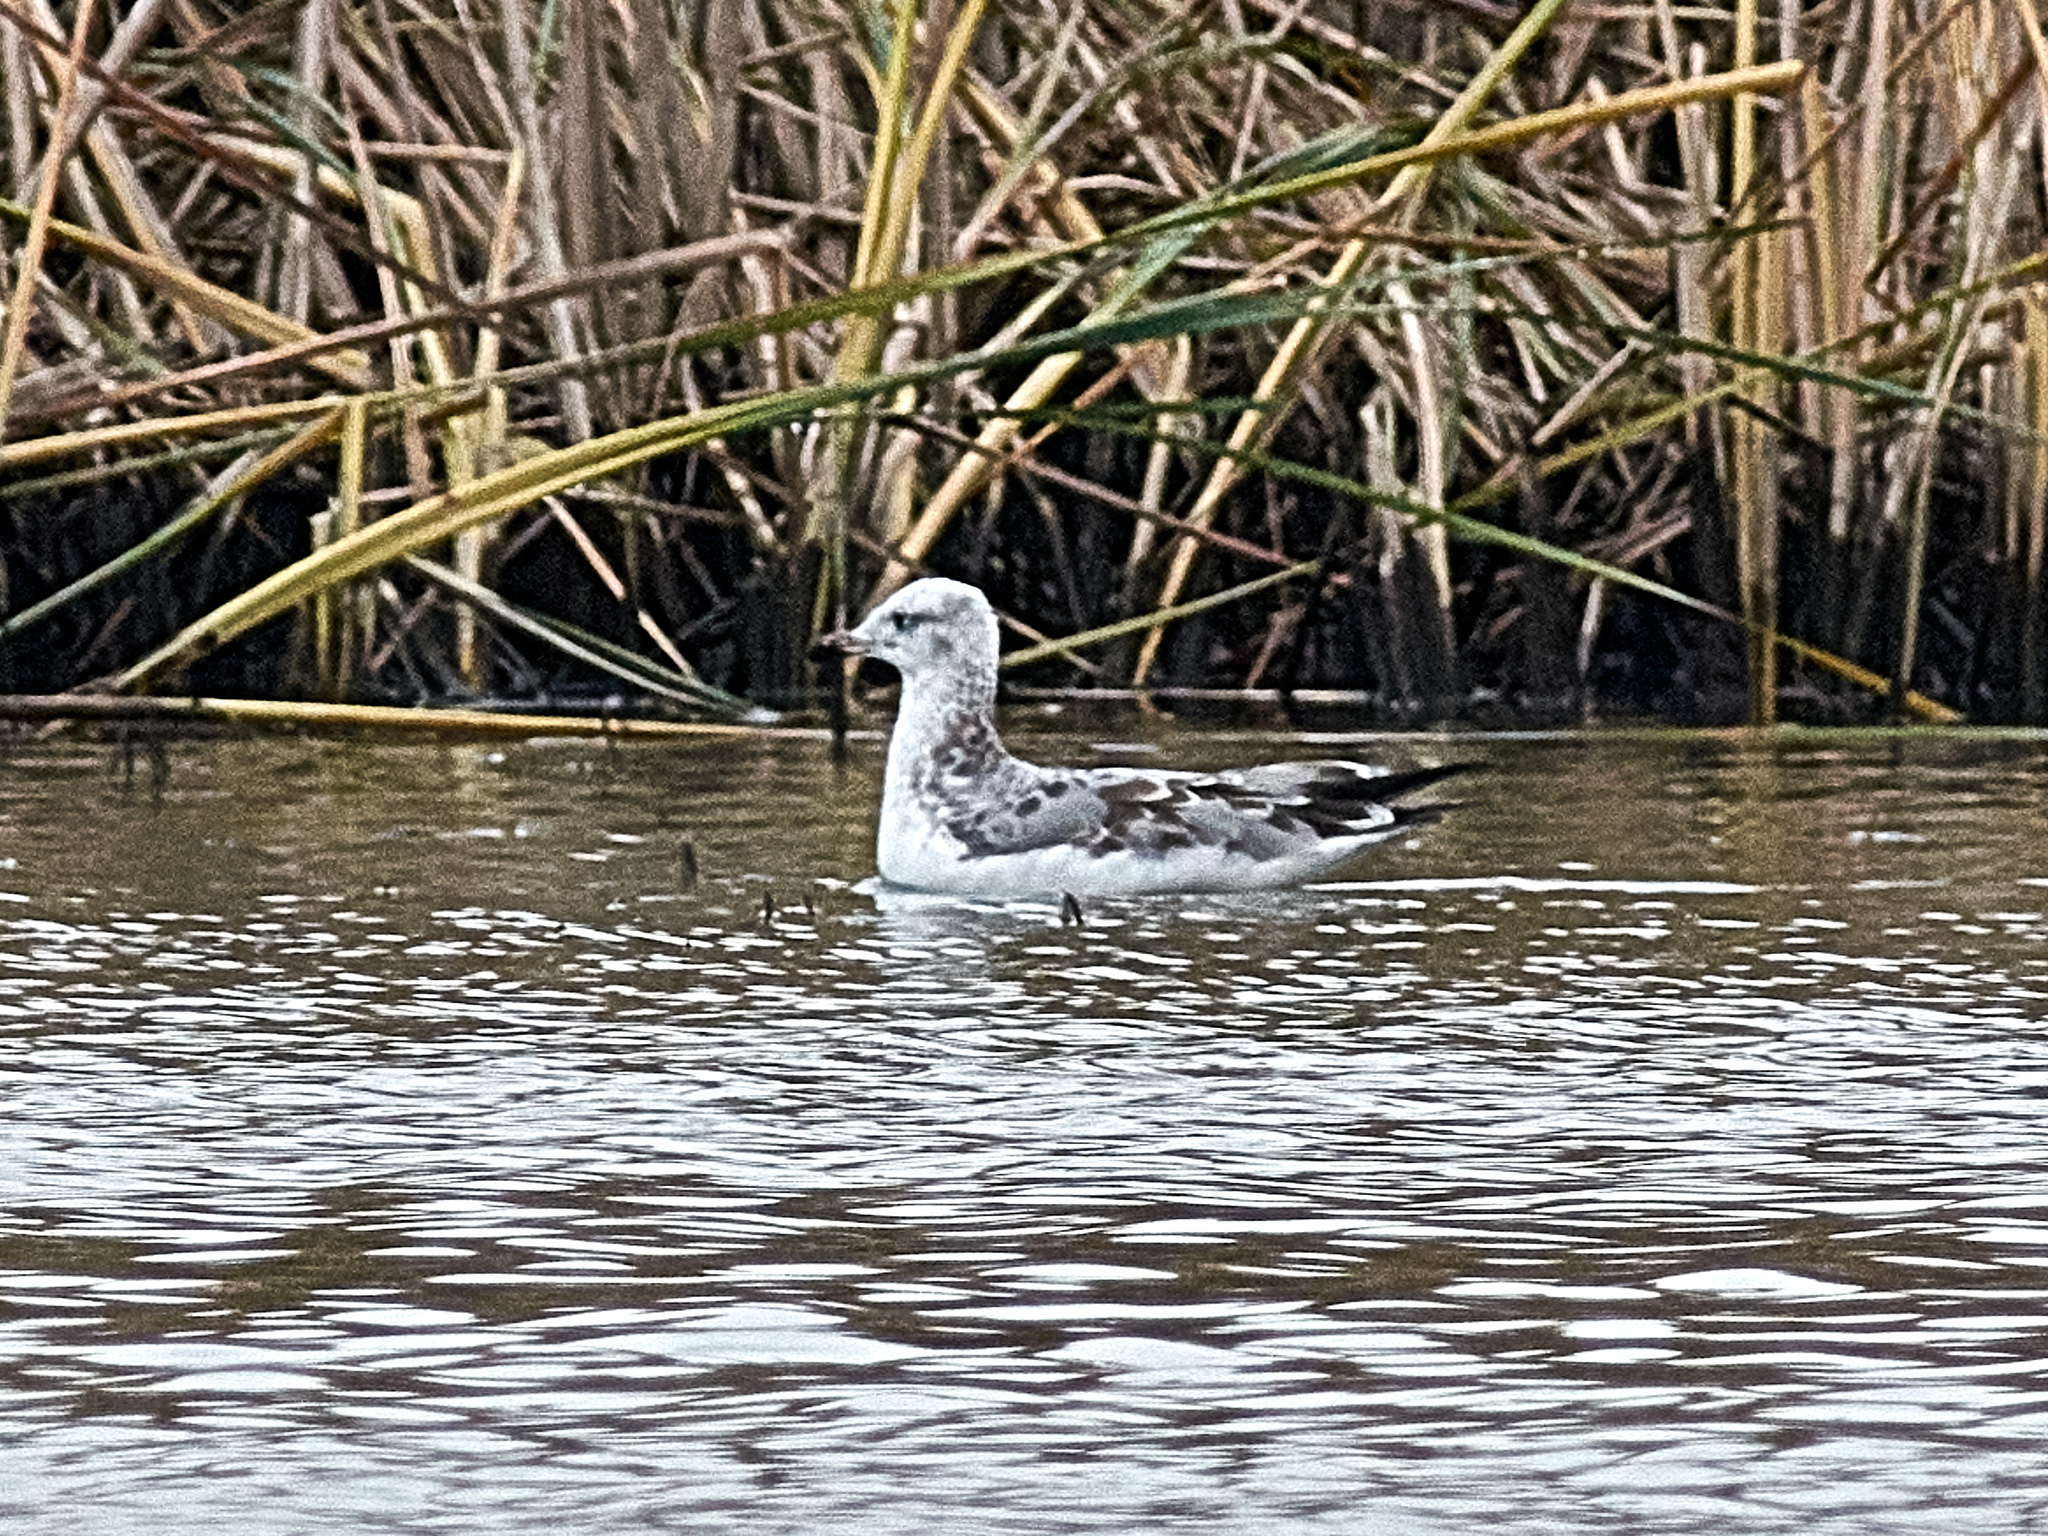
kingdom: Animalia
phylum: Chordata
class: Aves
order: Charadriiformes
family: Laridae
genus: Ichthyaetus
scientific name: Ichthyaetus ichthyaetus
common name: Pallas's gull
